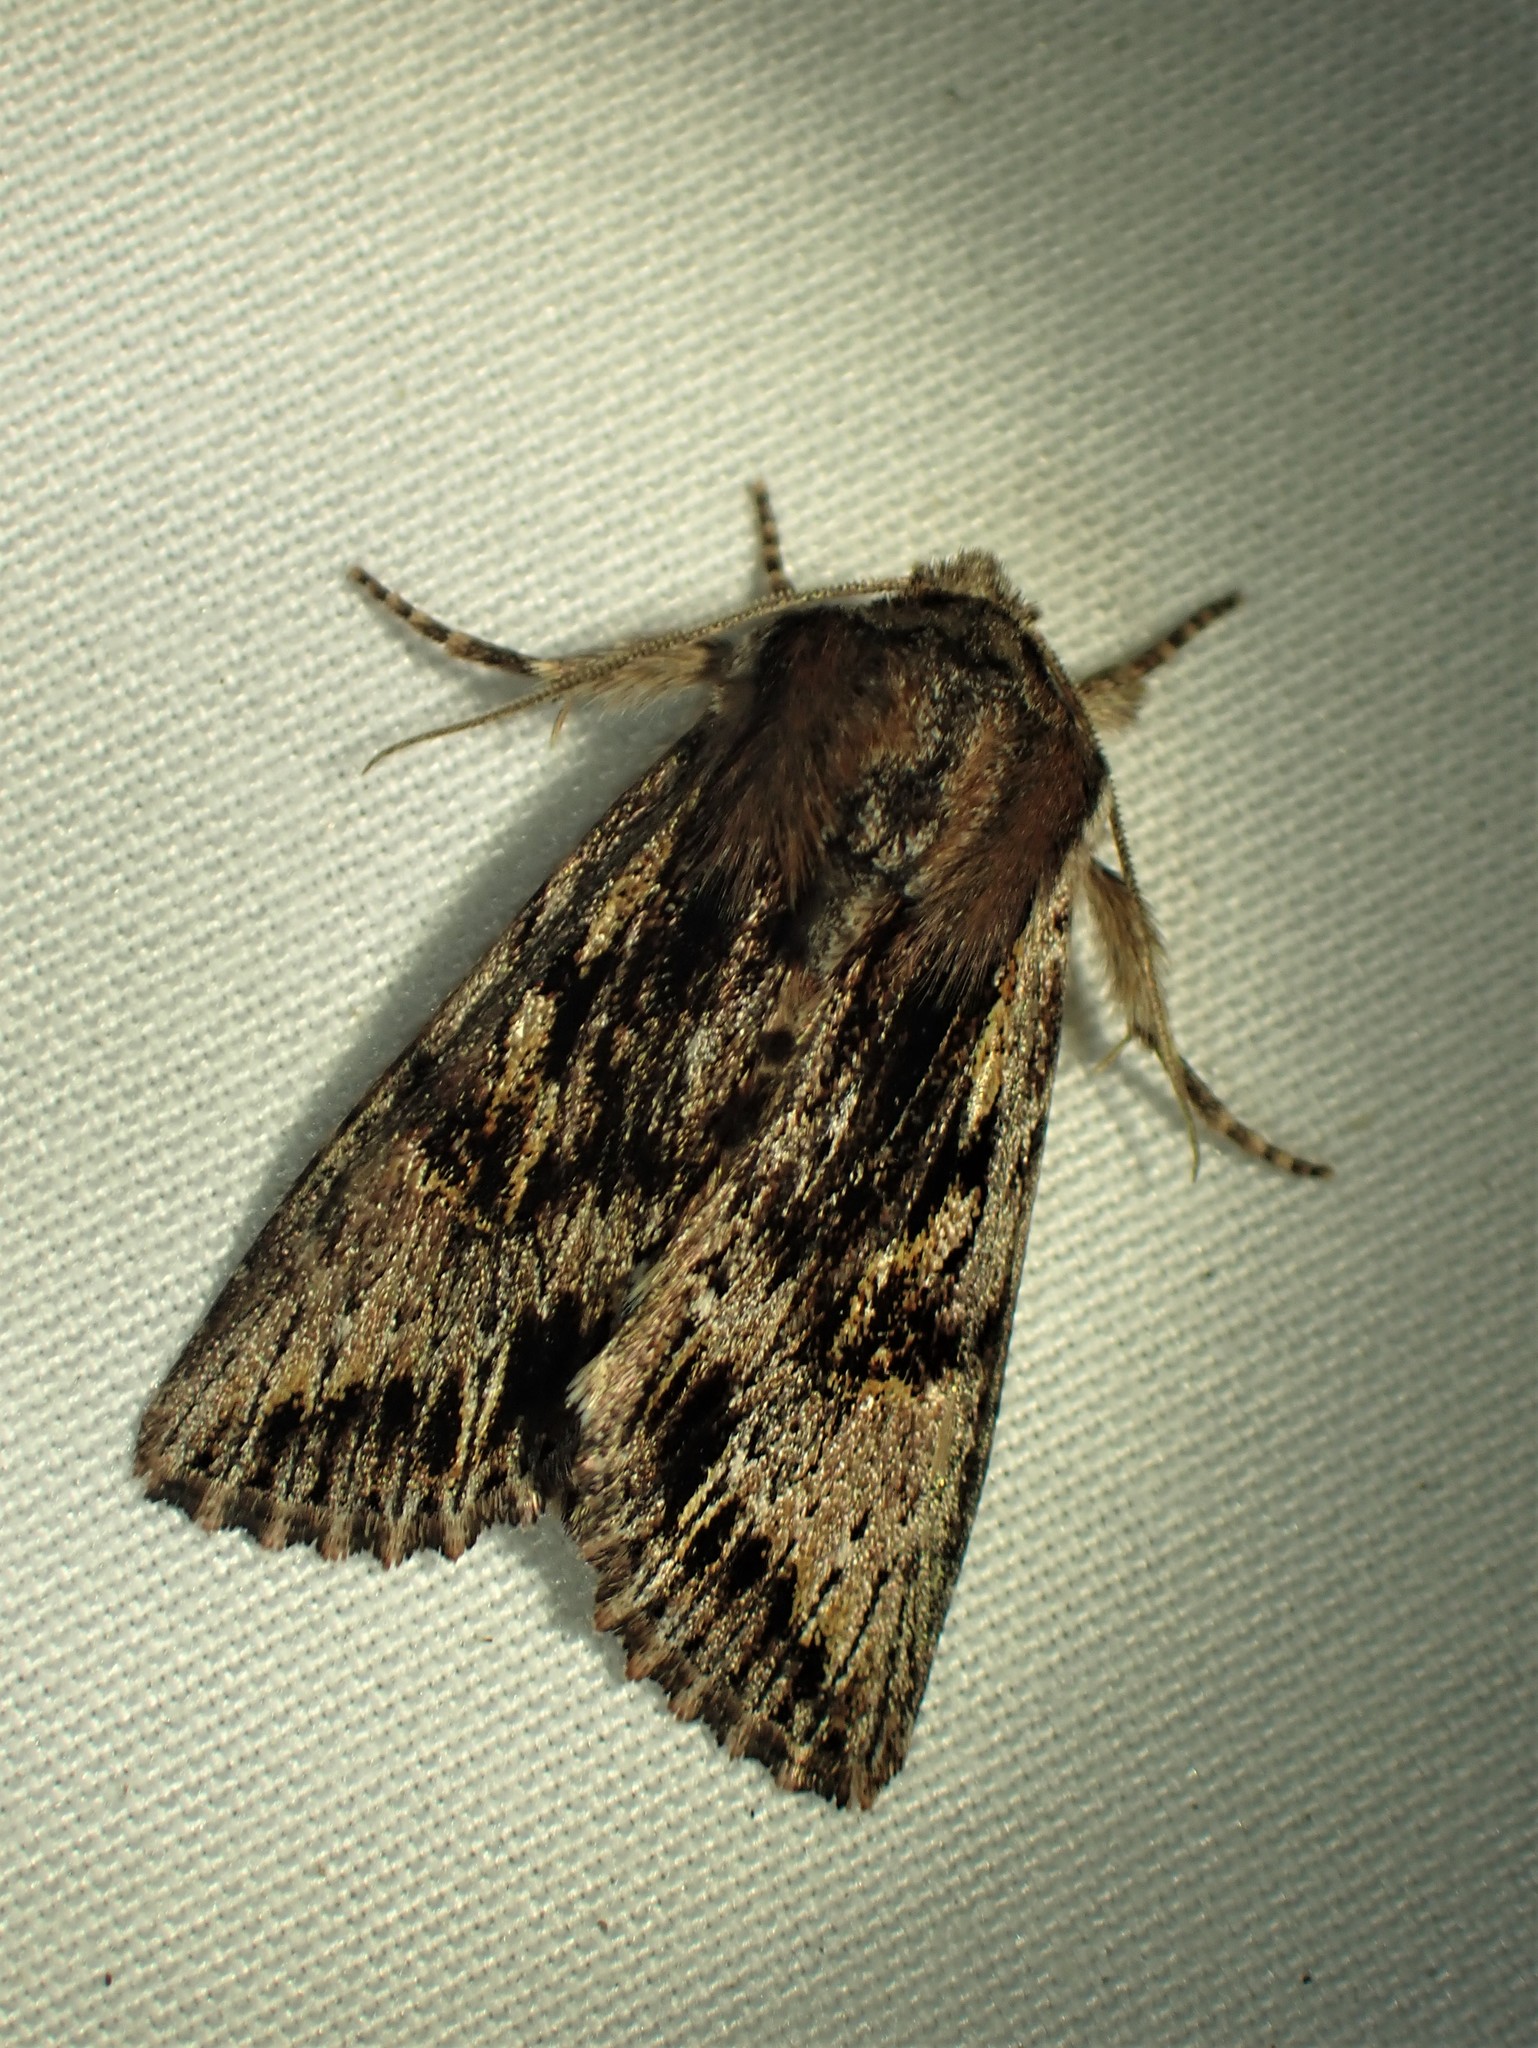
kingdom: Animalia
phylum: Arthropoda
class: Insecta
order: Lepidoptera
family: Noctuidae
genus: Achatia
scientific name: Achatia evicta
